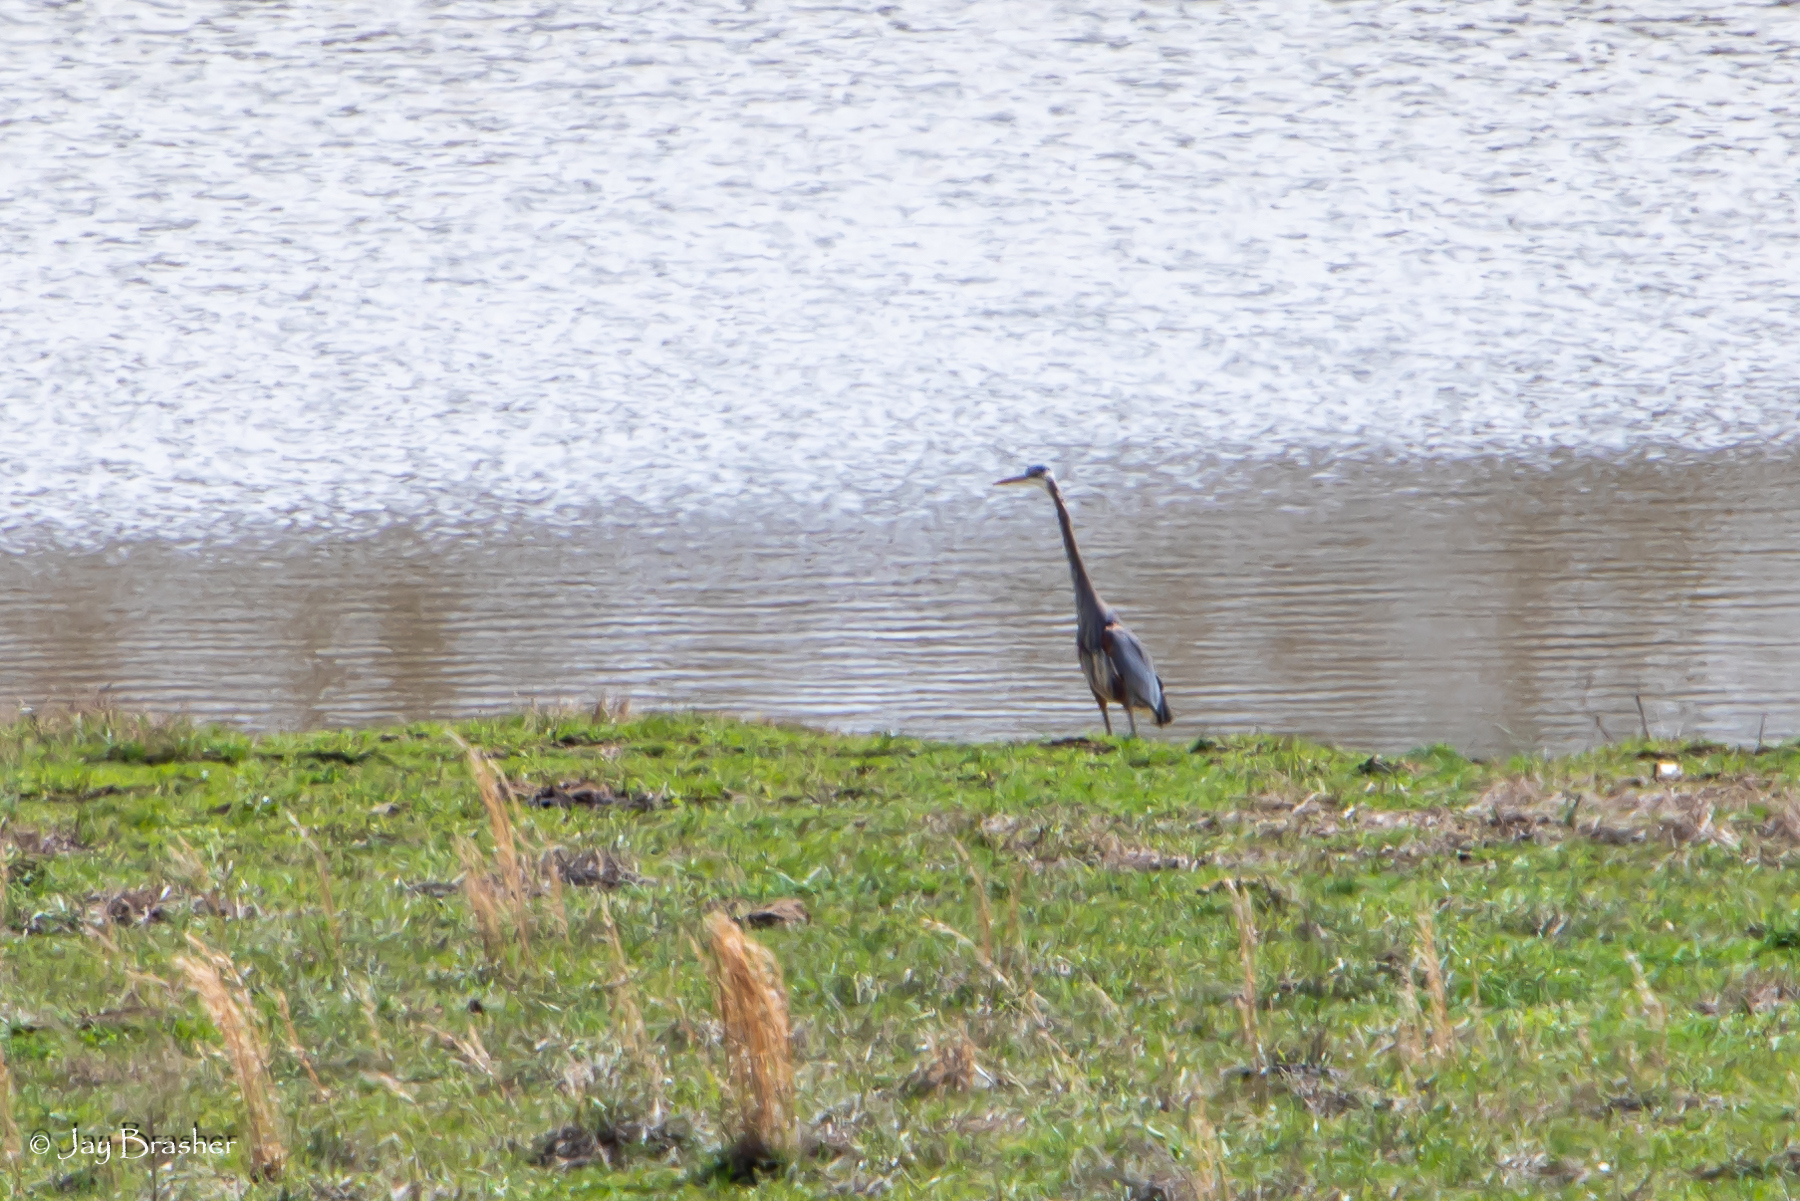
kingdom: Animalia
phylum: Chordata
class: Aves
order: Pelecaniformes
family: Ardeidae
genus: Ardea
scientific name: Ardea herodias
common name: Great blue heron
